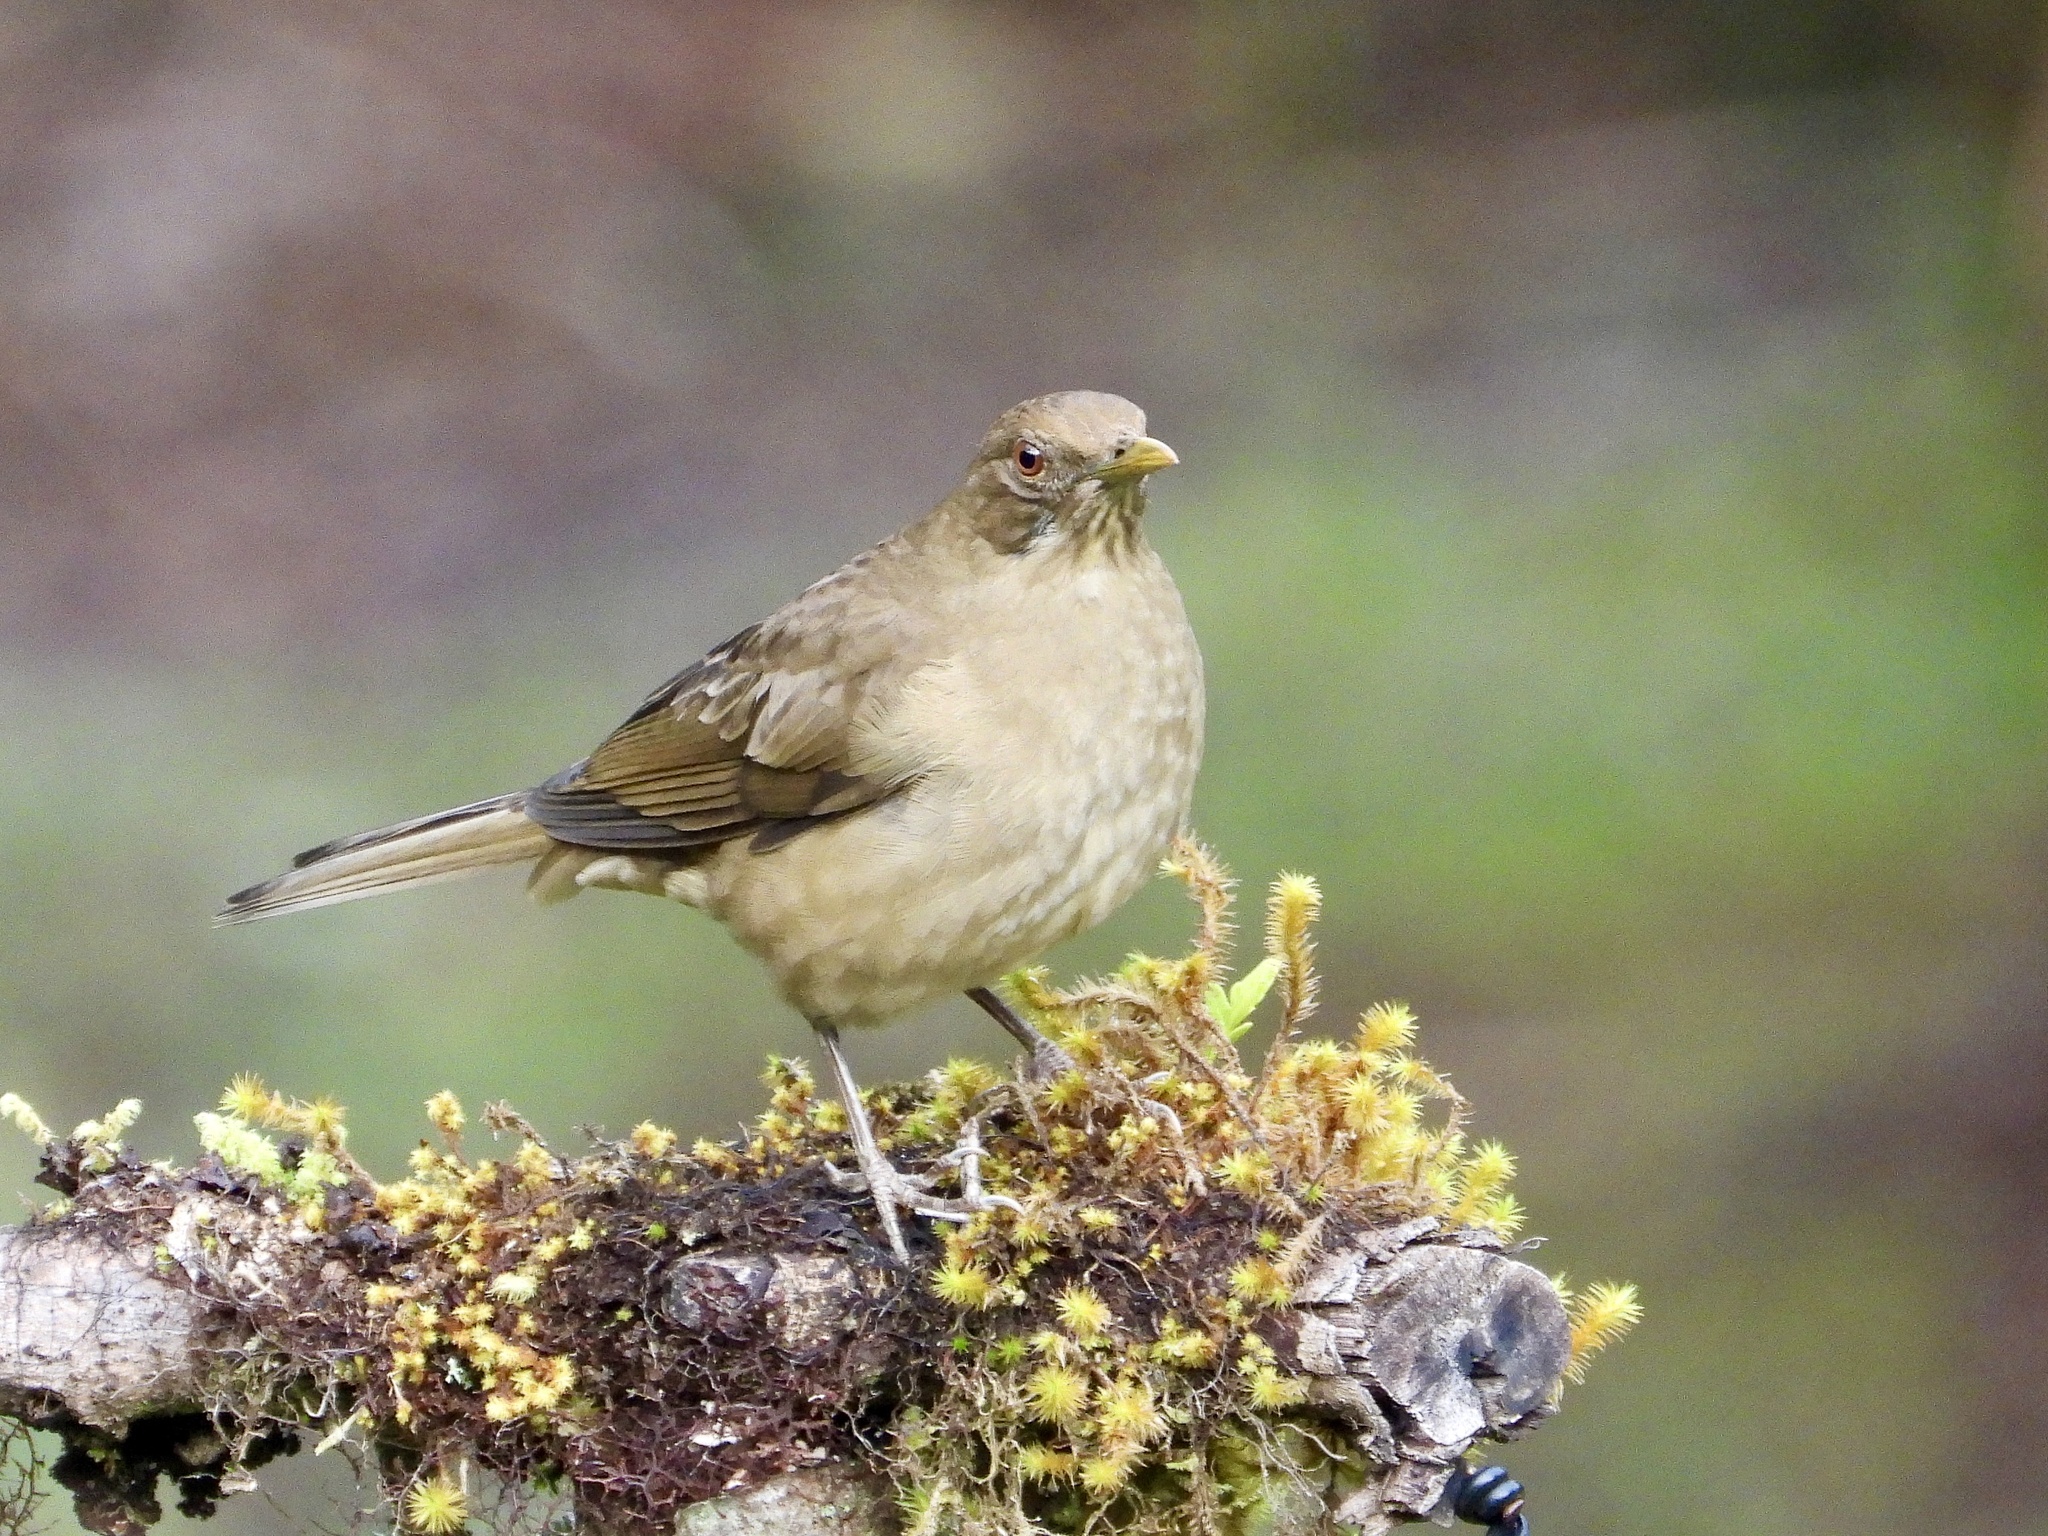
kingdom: Animalia
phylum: Chordata
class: Aves
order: Passeriformes
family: Turdidae
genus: Turdus
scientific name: Turdus grayi
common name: Clay-colored thrush
